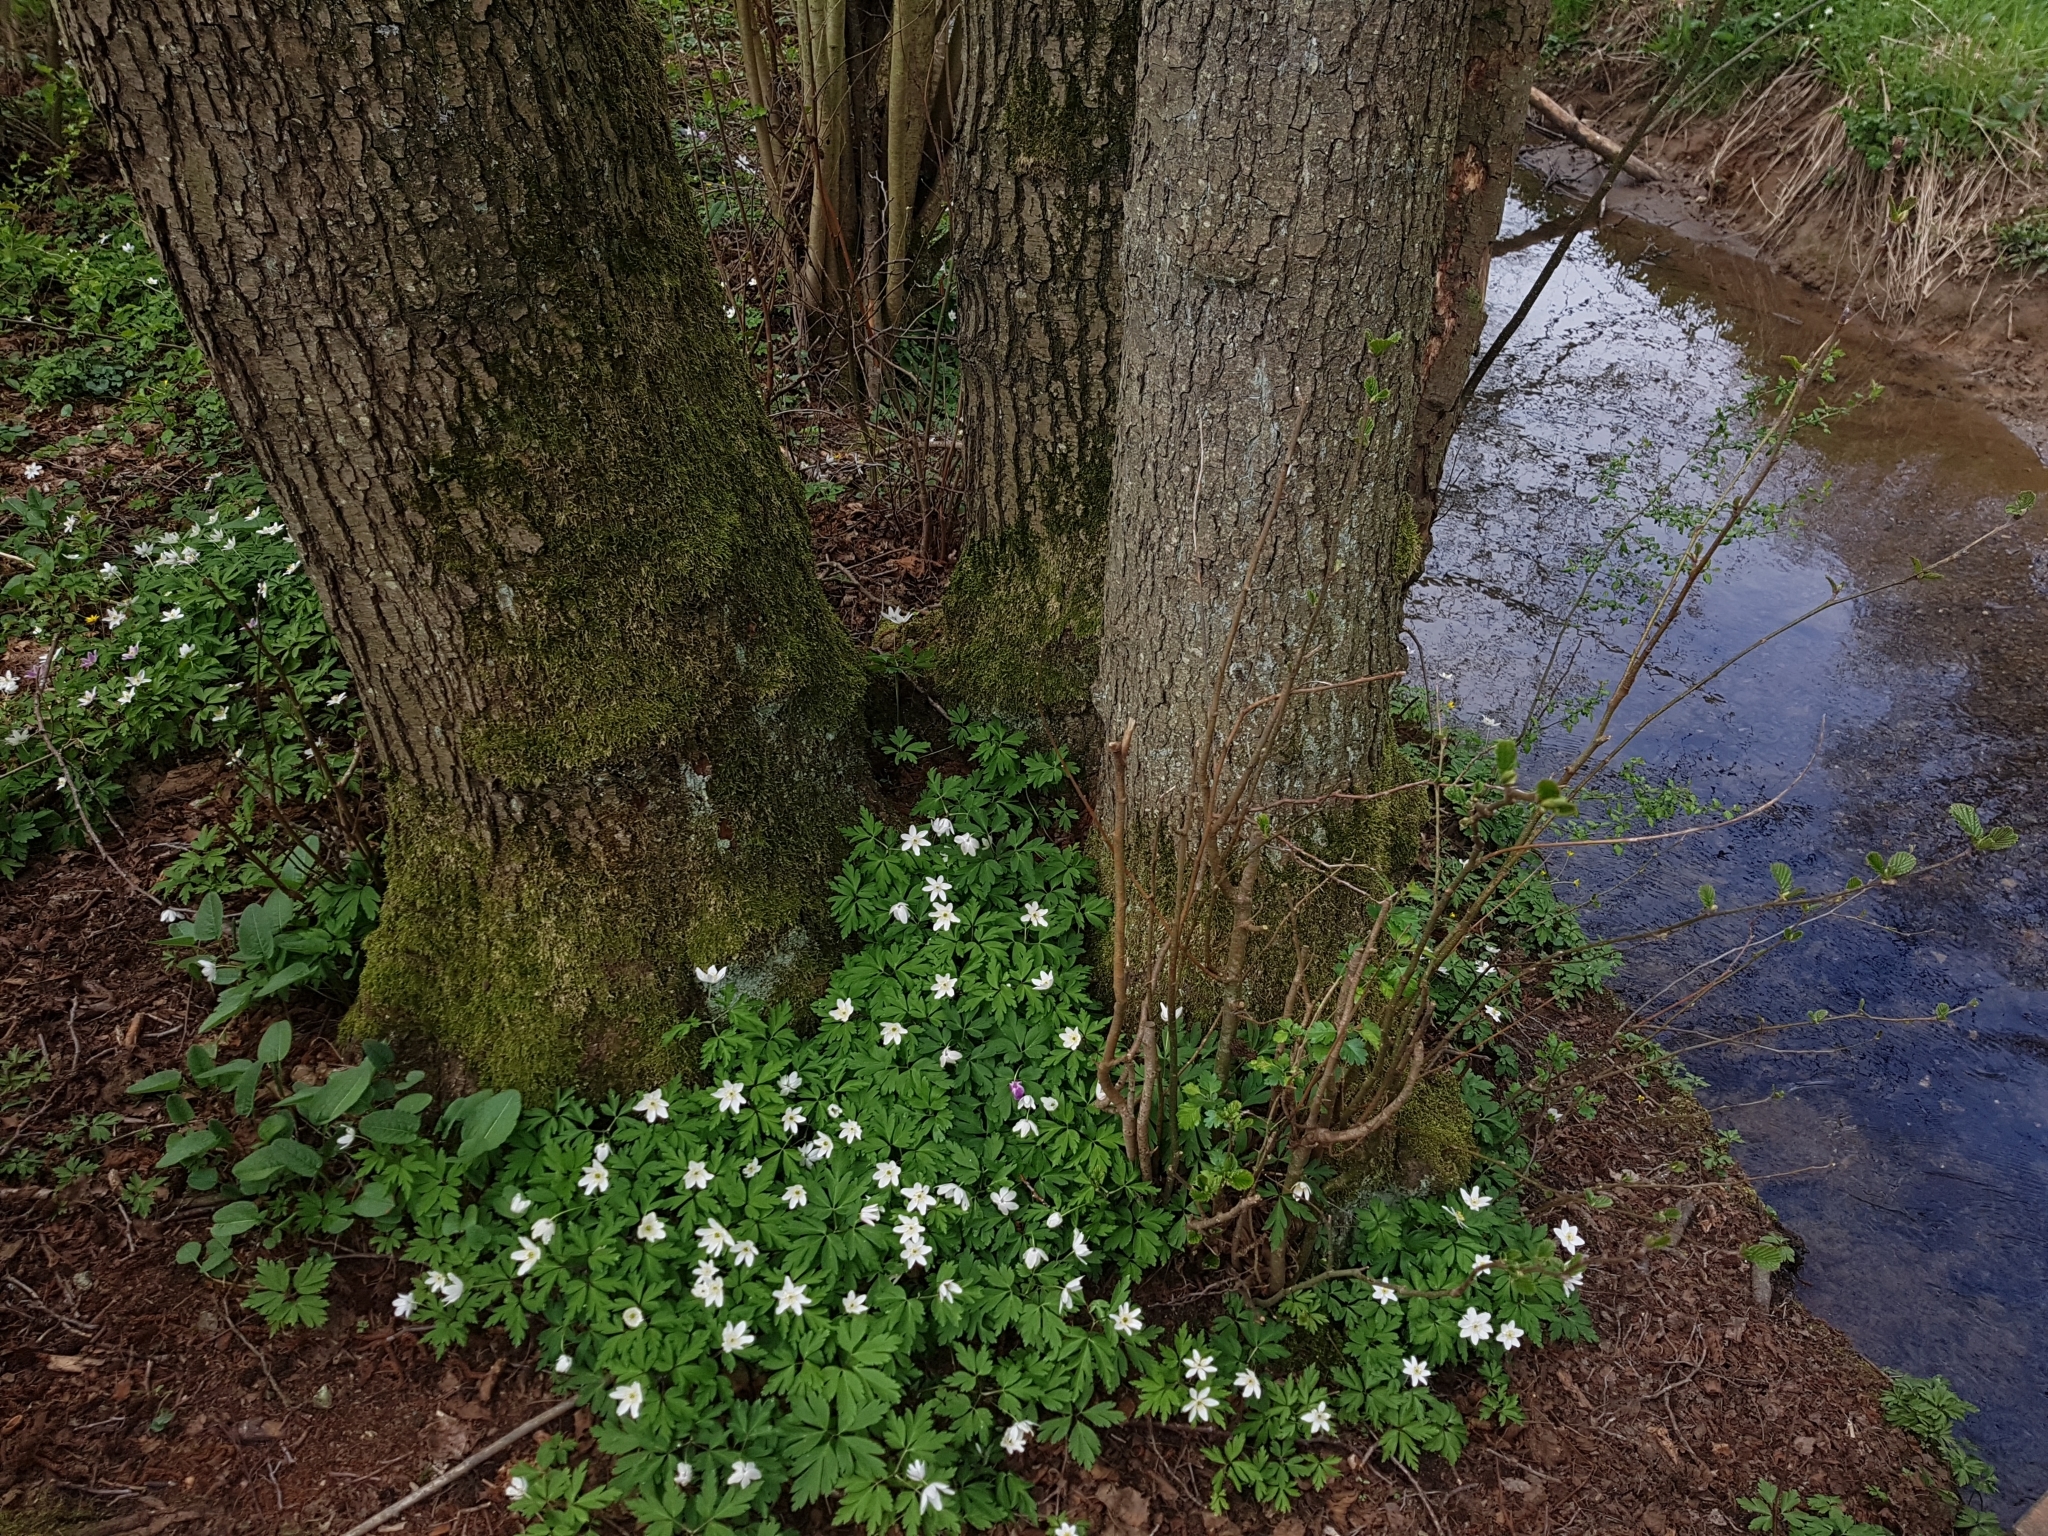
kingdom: Plantae
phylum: Tracheophyta
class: Magnoliopsida
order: Ranunculales
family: Ranunculaceae
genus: Anemone
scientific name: Anemone nemorosa
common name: Wood anemone
